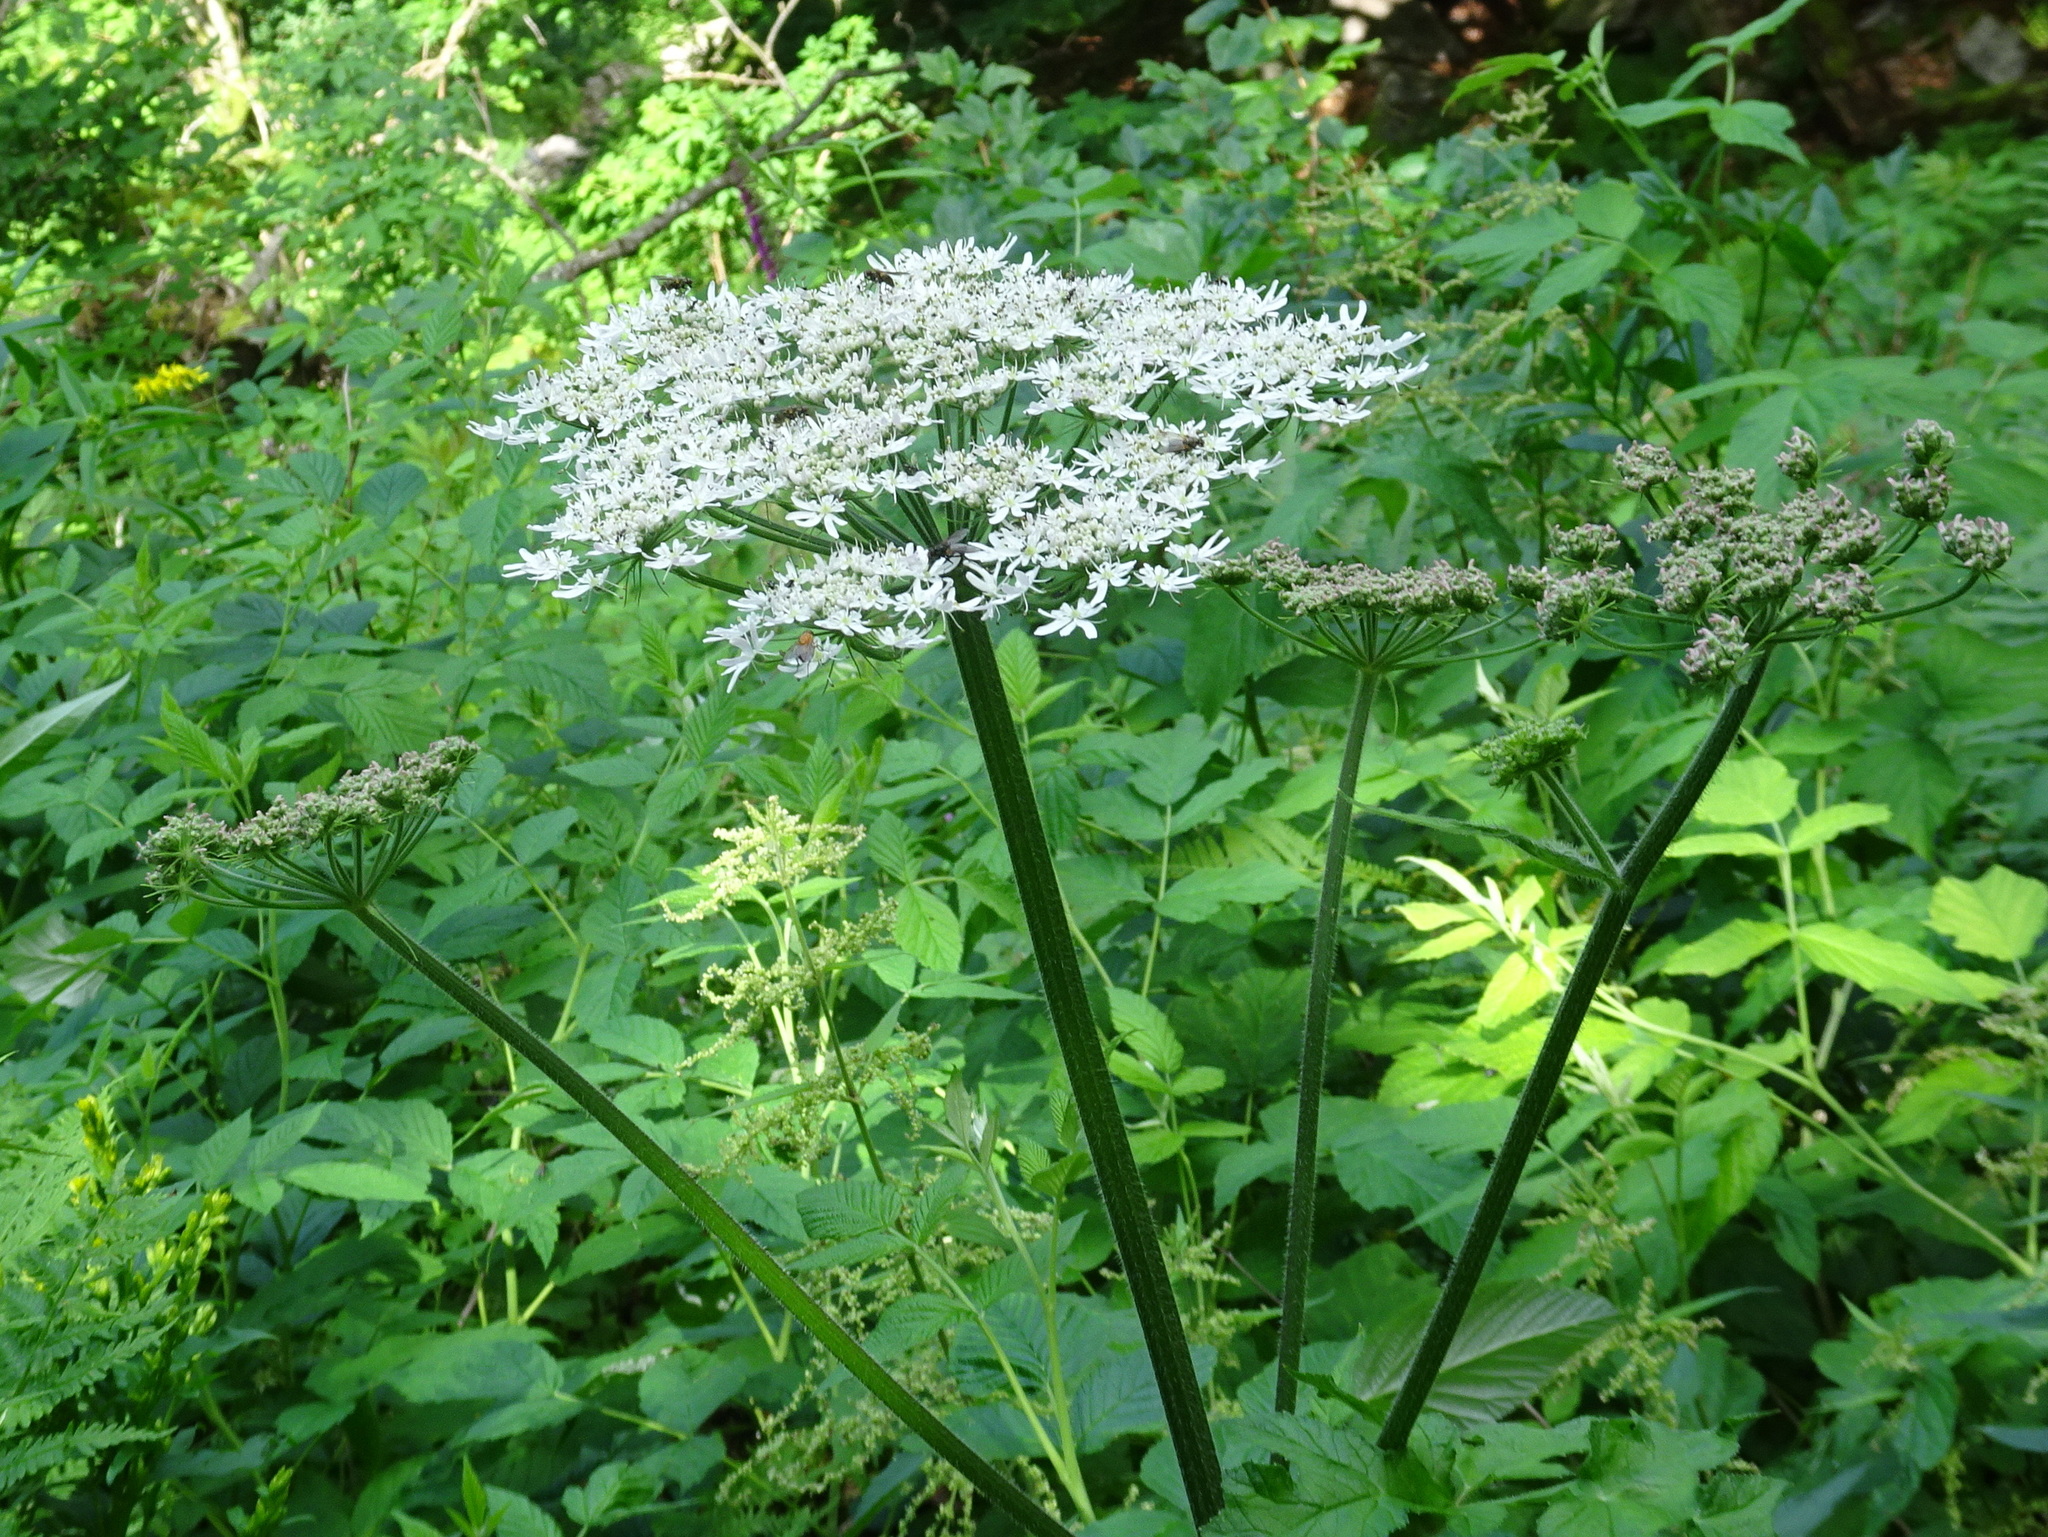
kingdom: Plantae
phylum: Tracheophyta
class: Magnoliopsida
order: Apiales
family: Apiaceae
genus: Heracleum
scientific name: Heracleum sphondylium
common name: Hogweed
